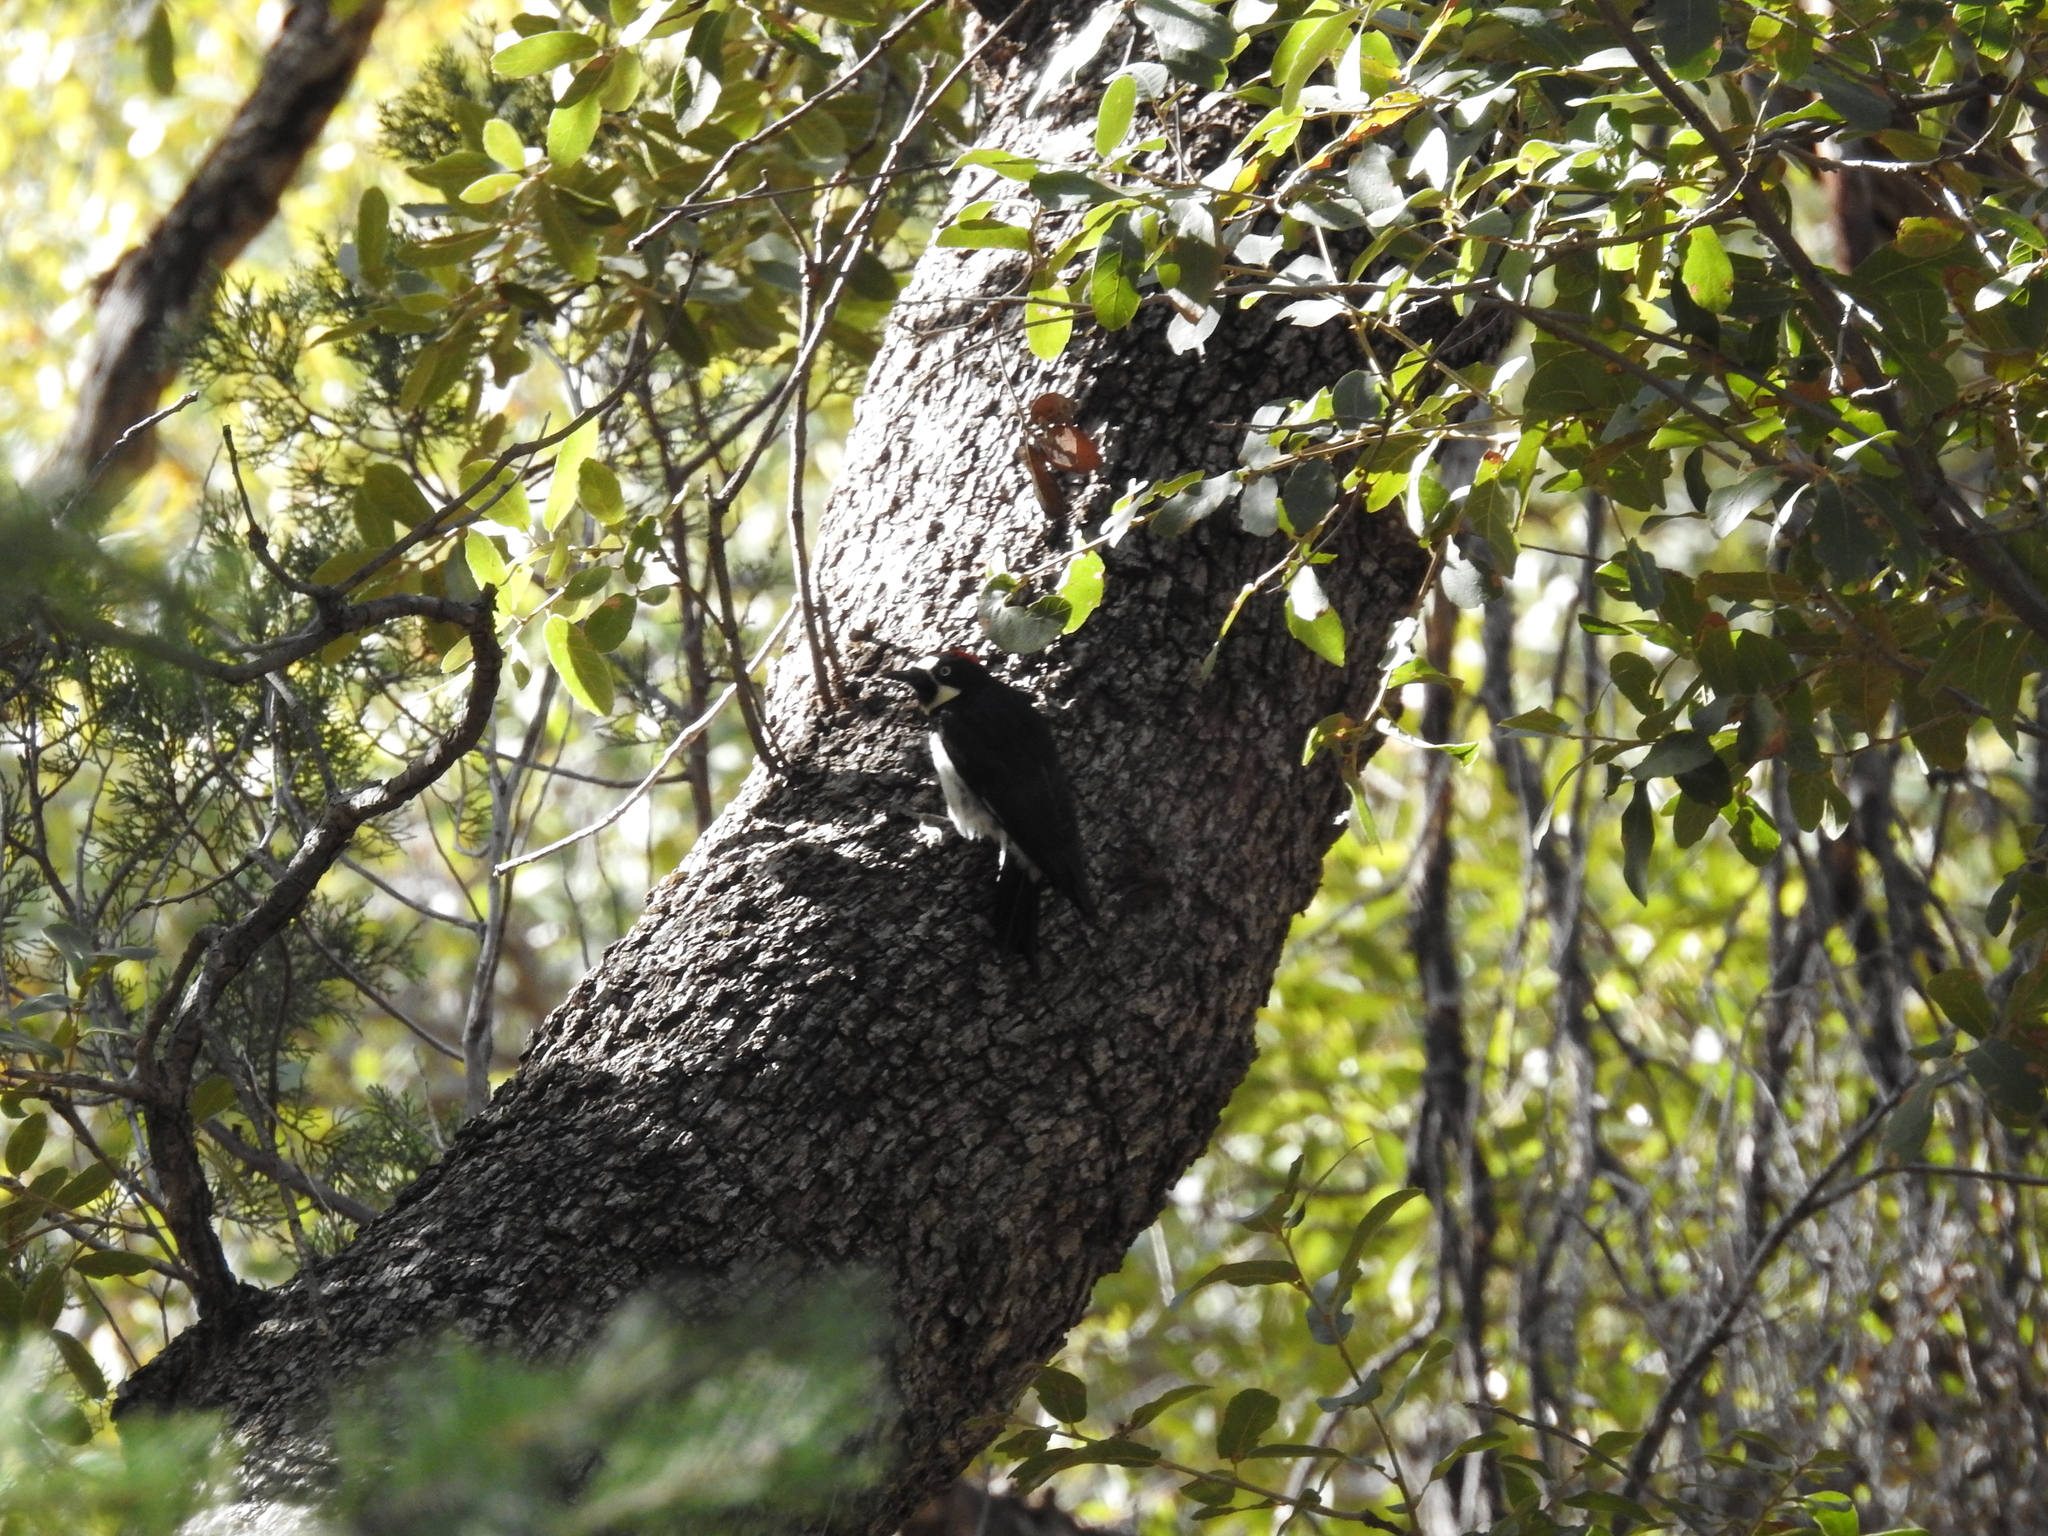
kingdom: Animalia
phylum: Chordata
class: Aves
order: Piciformes
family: Picidae
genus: Melanerpes
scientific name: Melanerpes formicivorus
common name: Acorn woodpecker
